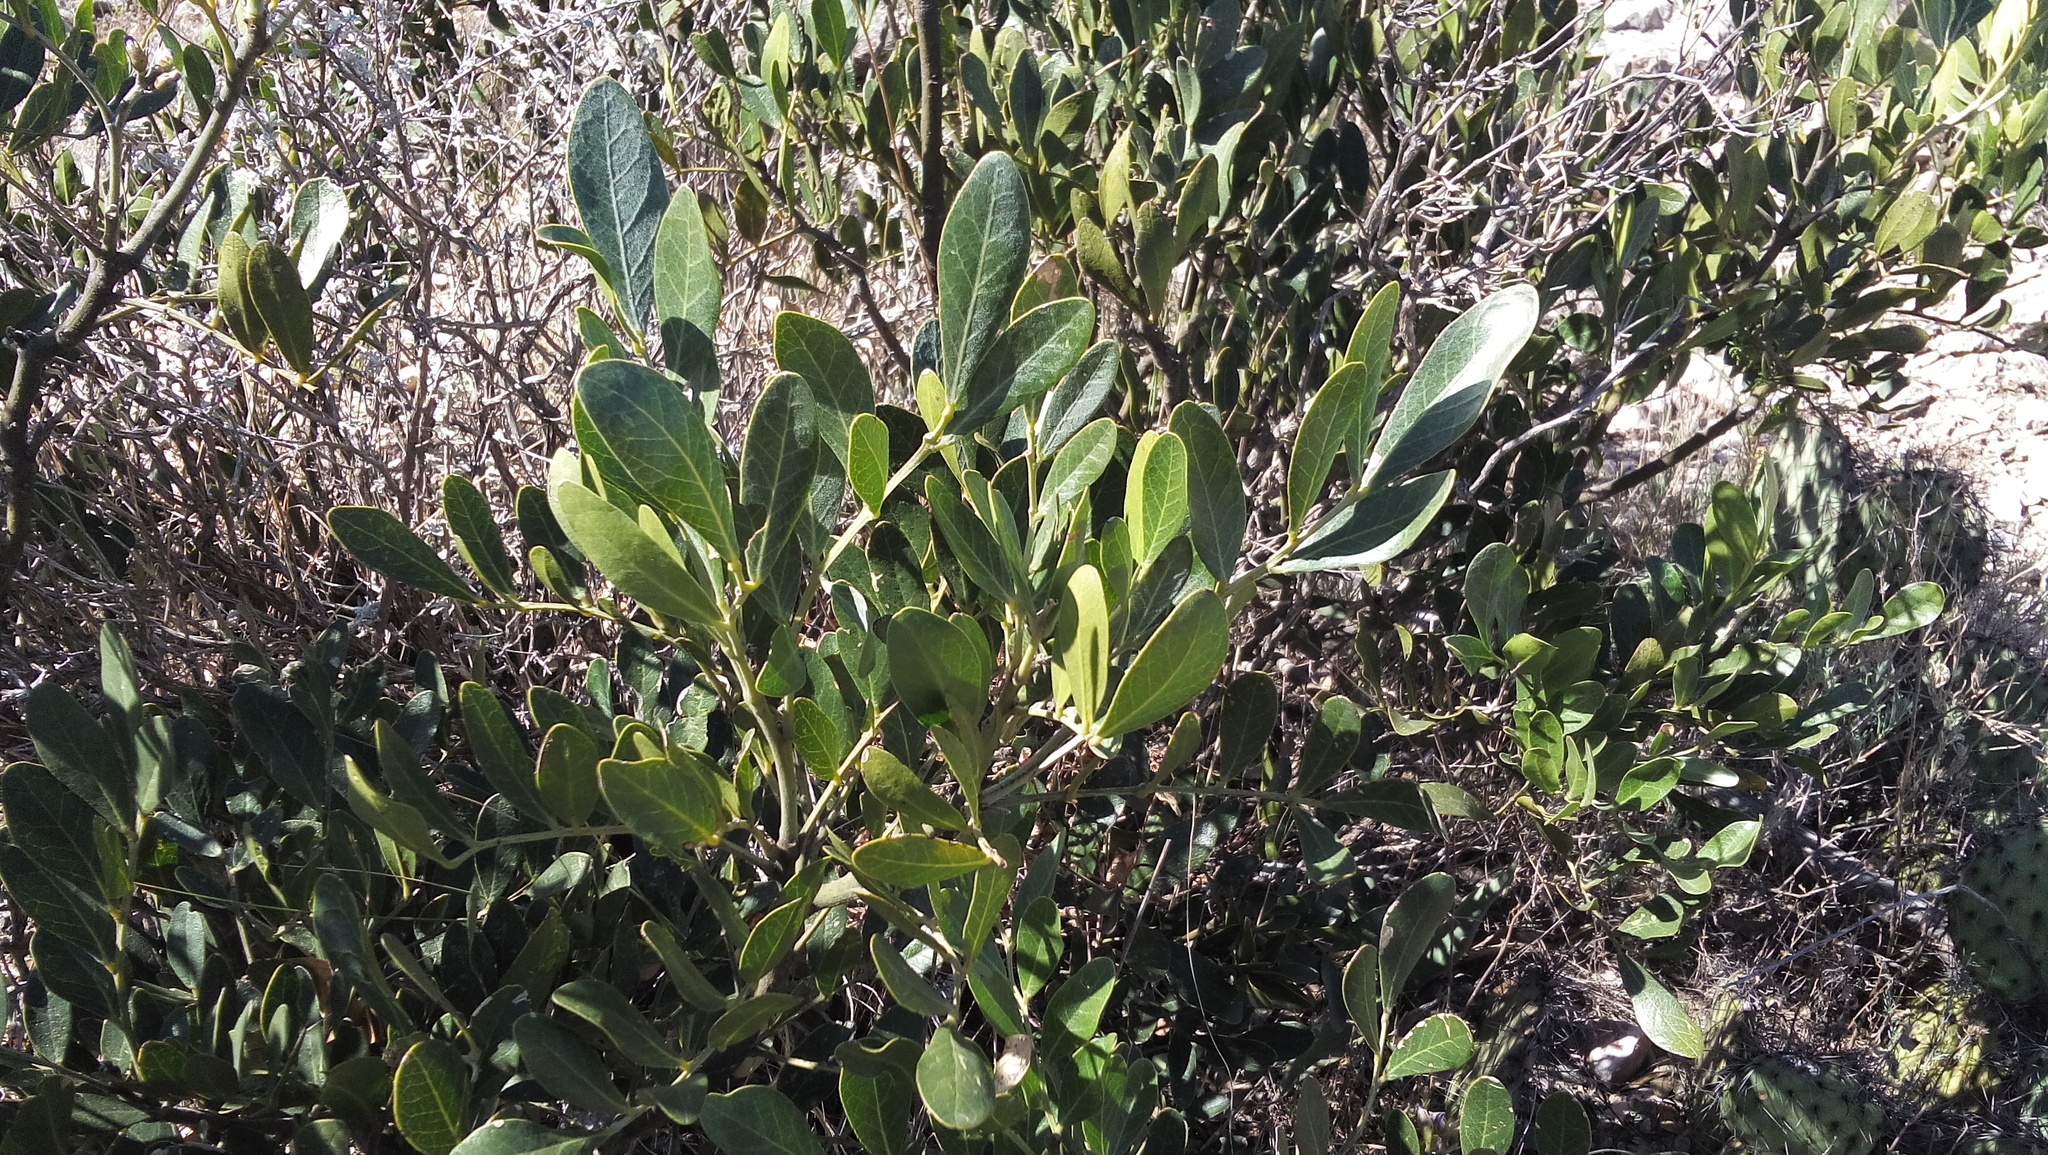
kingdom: Plantae
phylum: Tracheophyta
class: Magnoliopsida
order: Fabales
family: Fabaceae
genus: Dermatophyllum
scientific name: Dermatophyllum secundiflorum
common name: Texas-mountain-laurel
